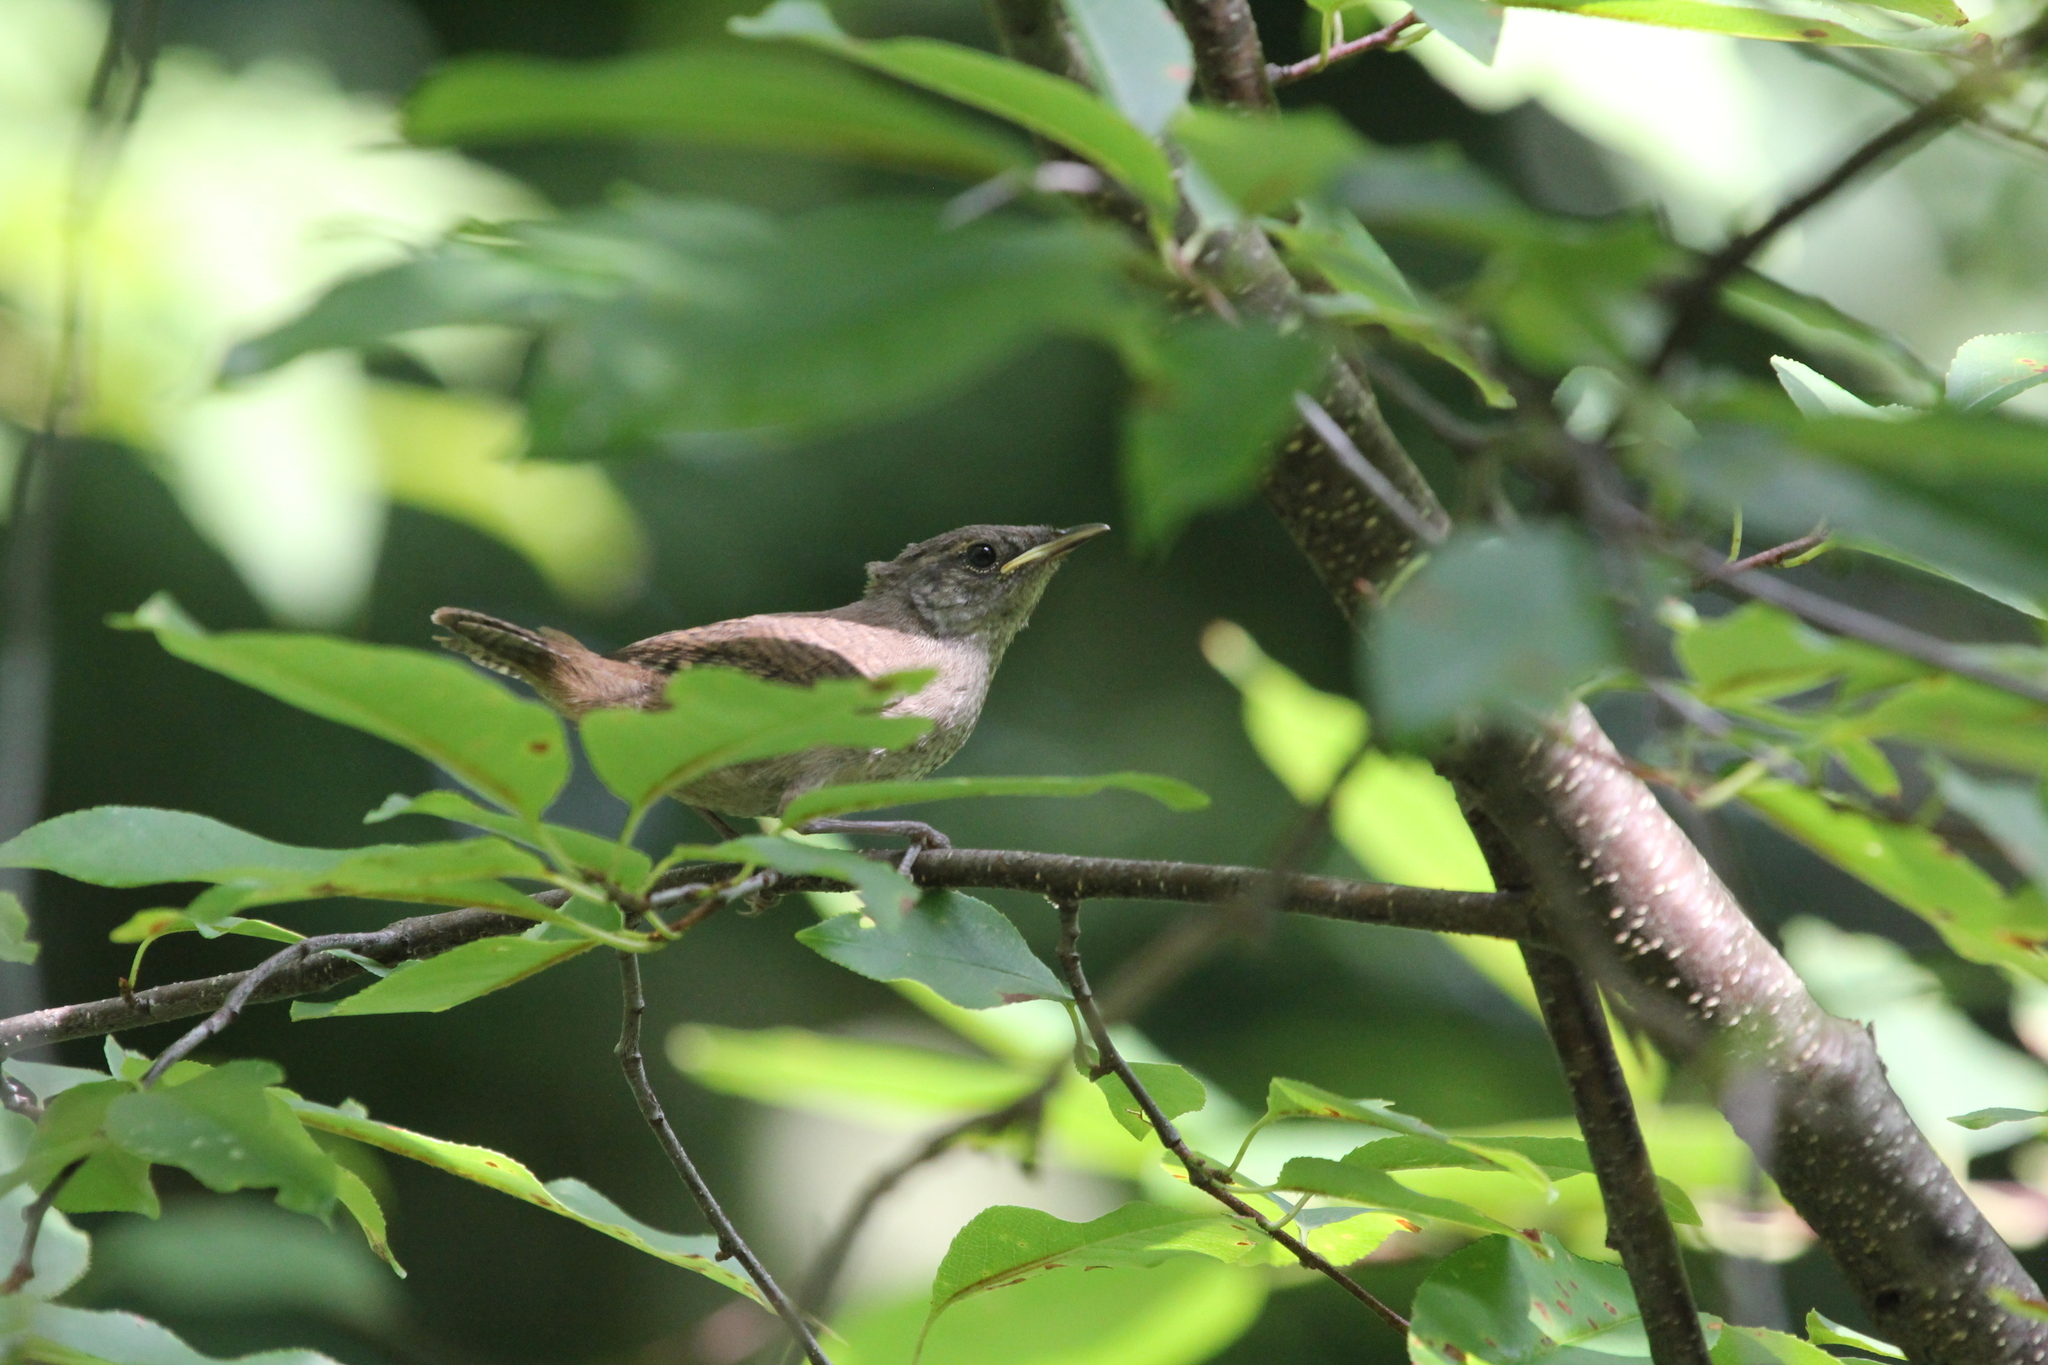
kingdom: Animalia
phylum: Chordata
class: Aves
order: Passeriformes
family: Troglodytidae
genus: Troglodytes
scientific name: Troglodytes aedon
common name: House wren
